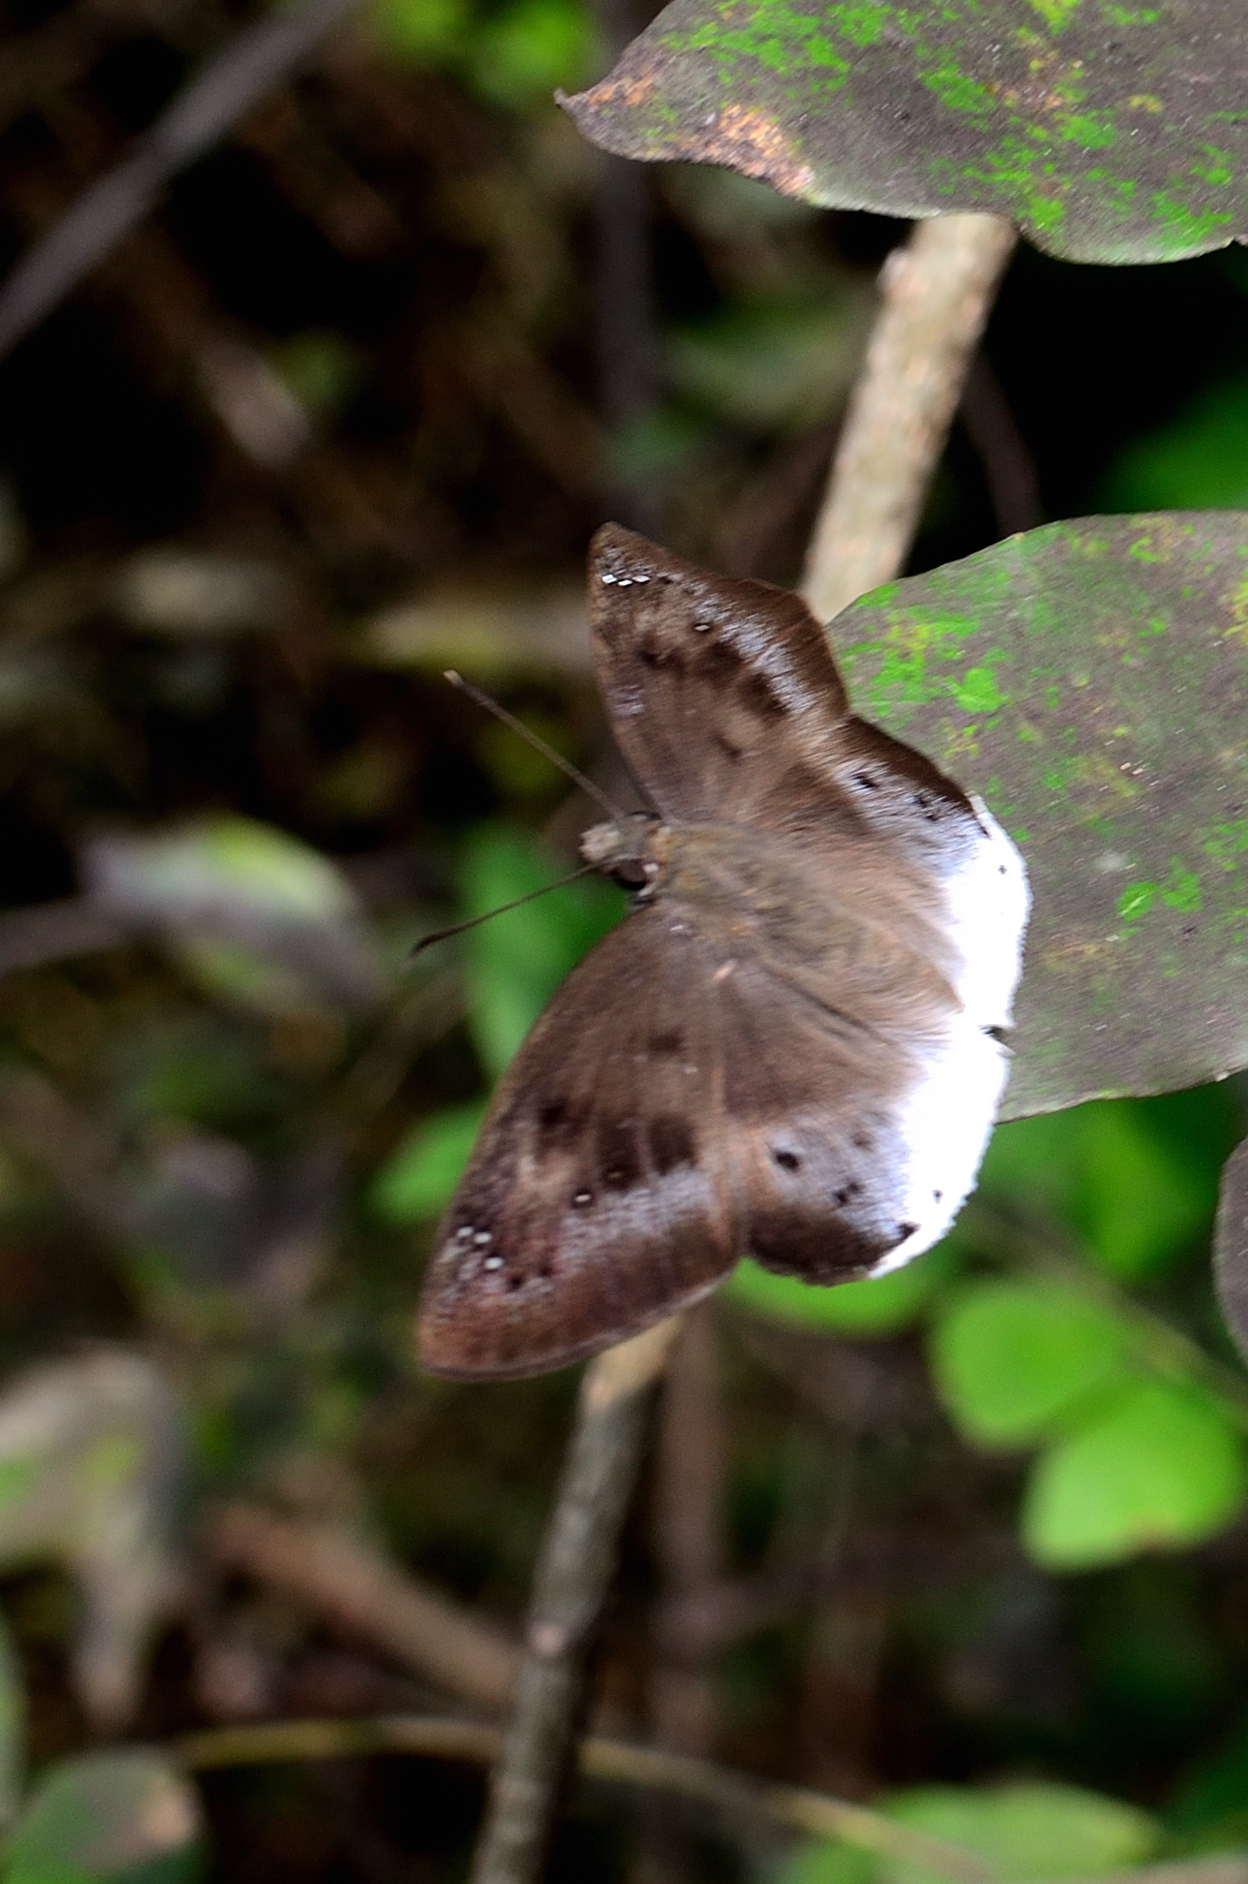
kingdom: Animalia
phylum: Arthropoda
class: Insecta
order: Lepidoptera
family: Hesperiidae
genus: Tagiades
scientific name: Tagiades japetus
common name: Pied flat
